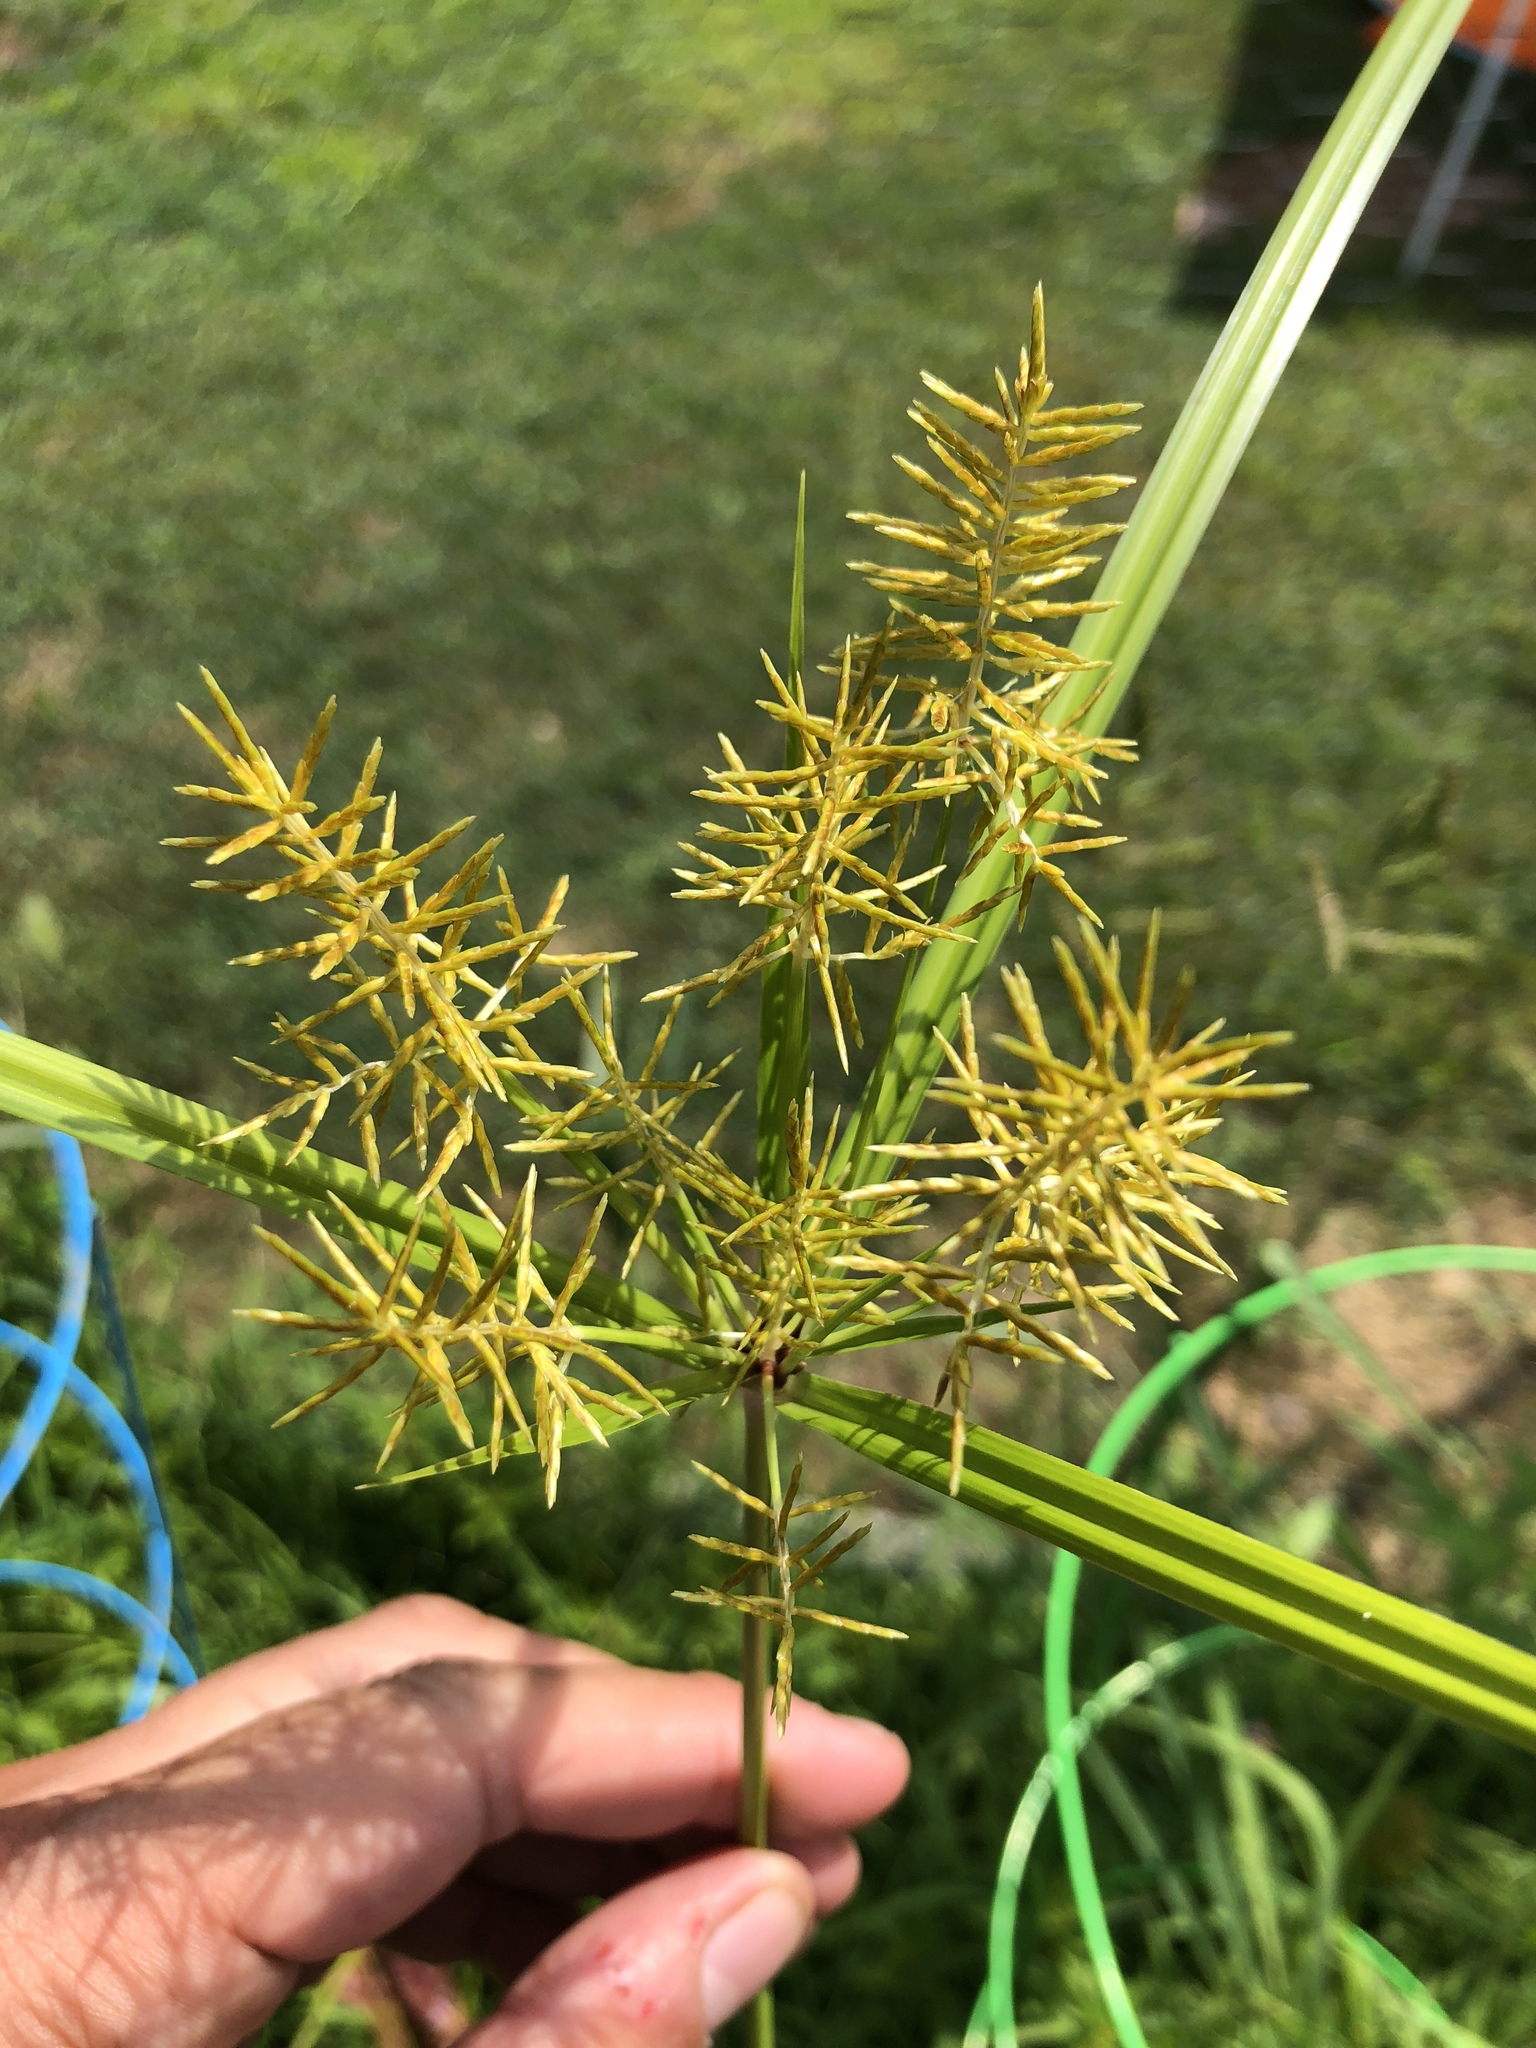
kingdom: Plantae
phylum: Tracheophyta
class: Liliopsida
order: Poales
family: Cyperaceae
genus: Cyperus
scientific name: Cyperus esculentus
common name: Yellow nutsedge
